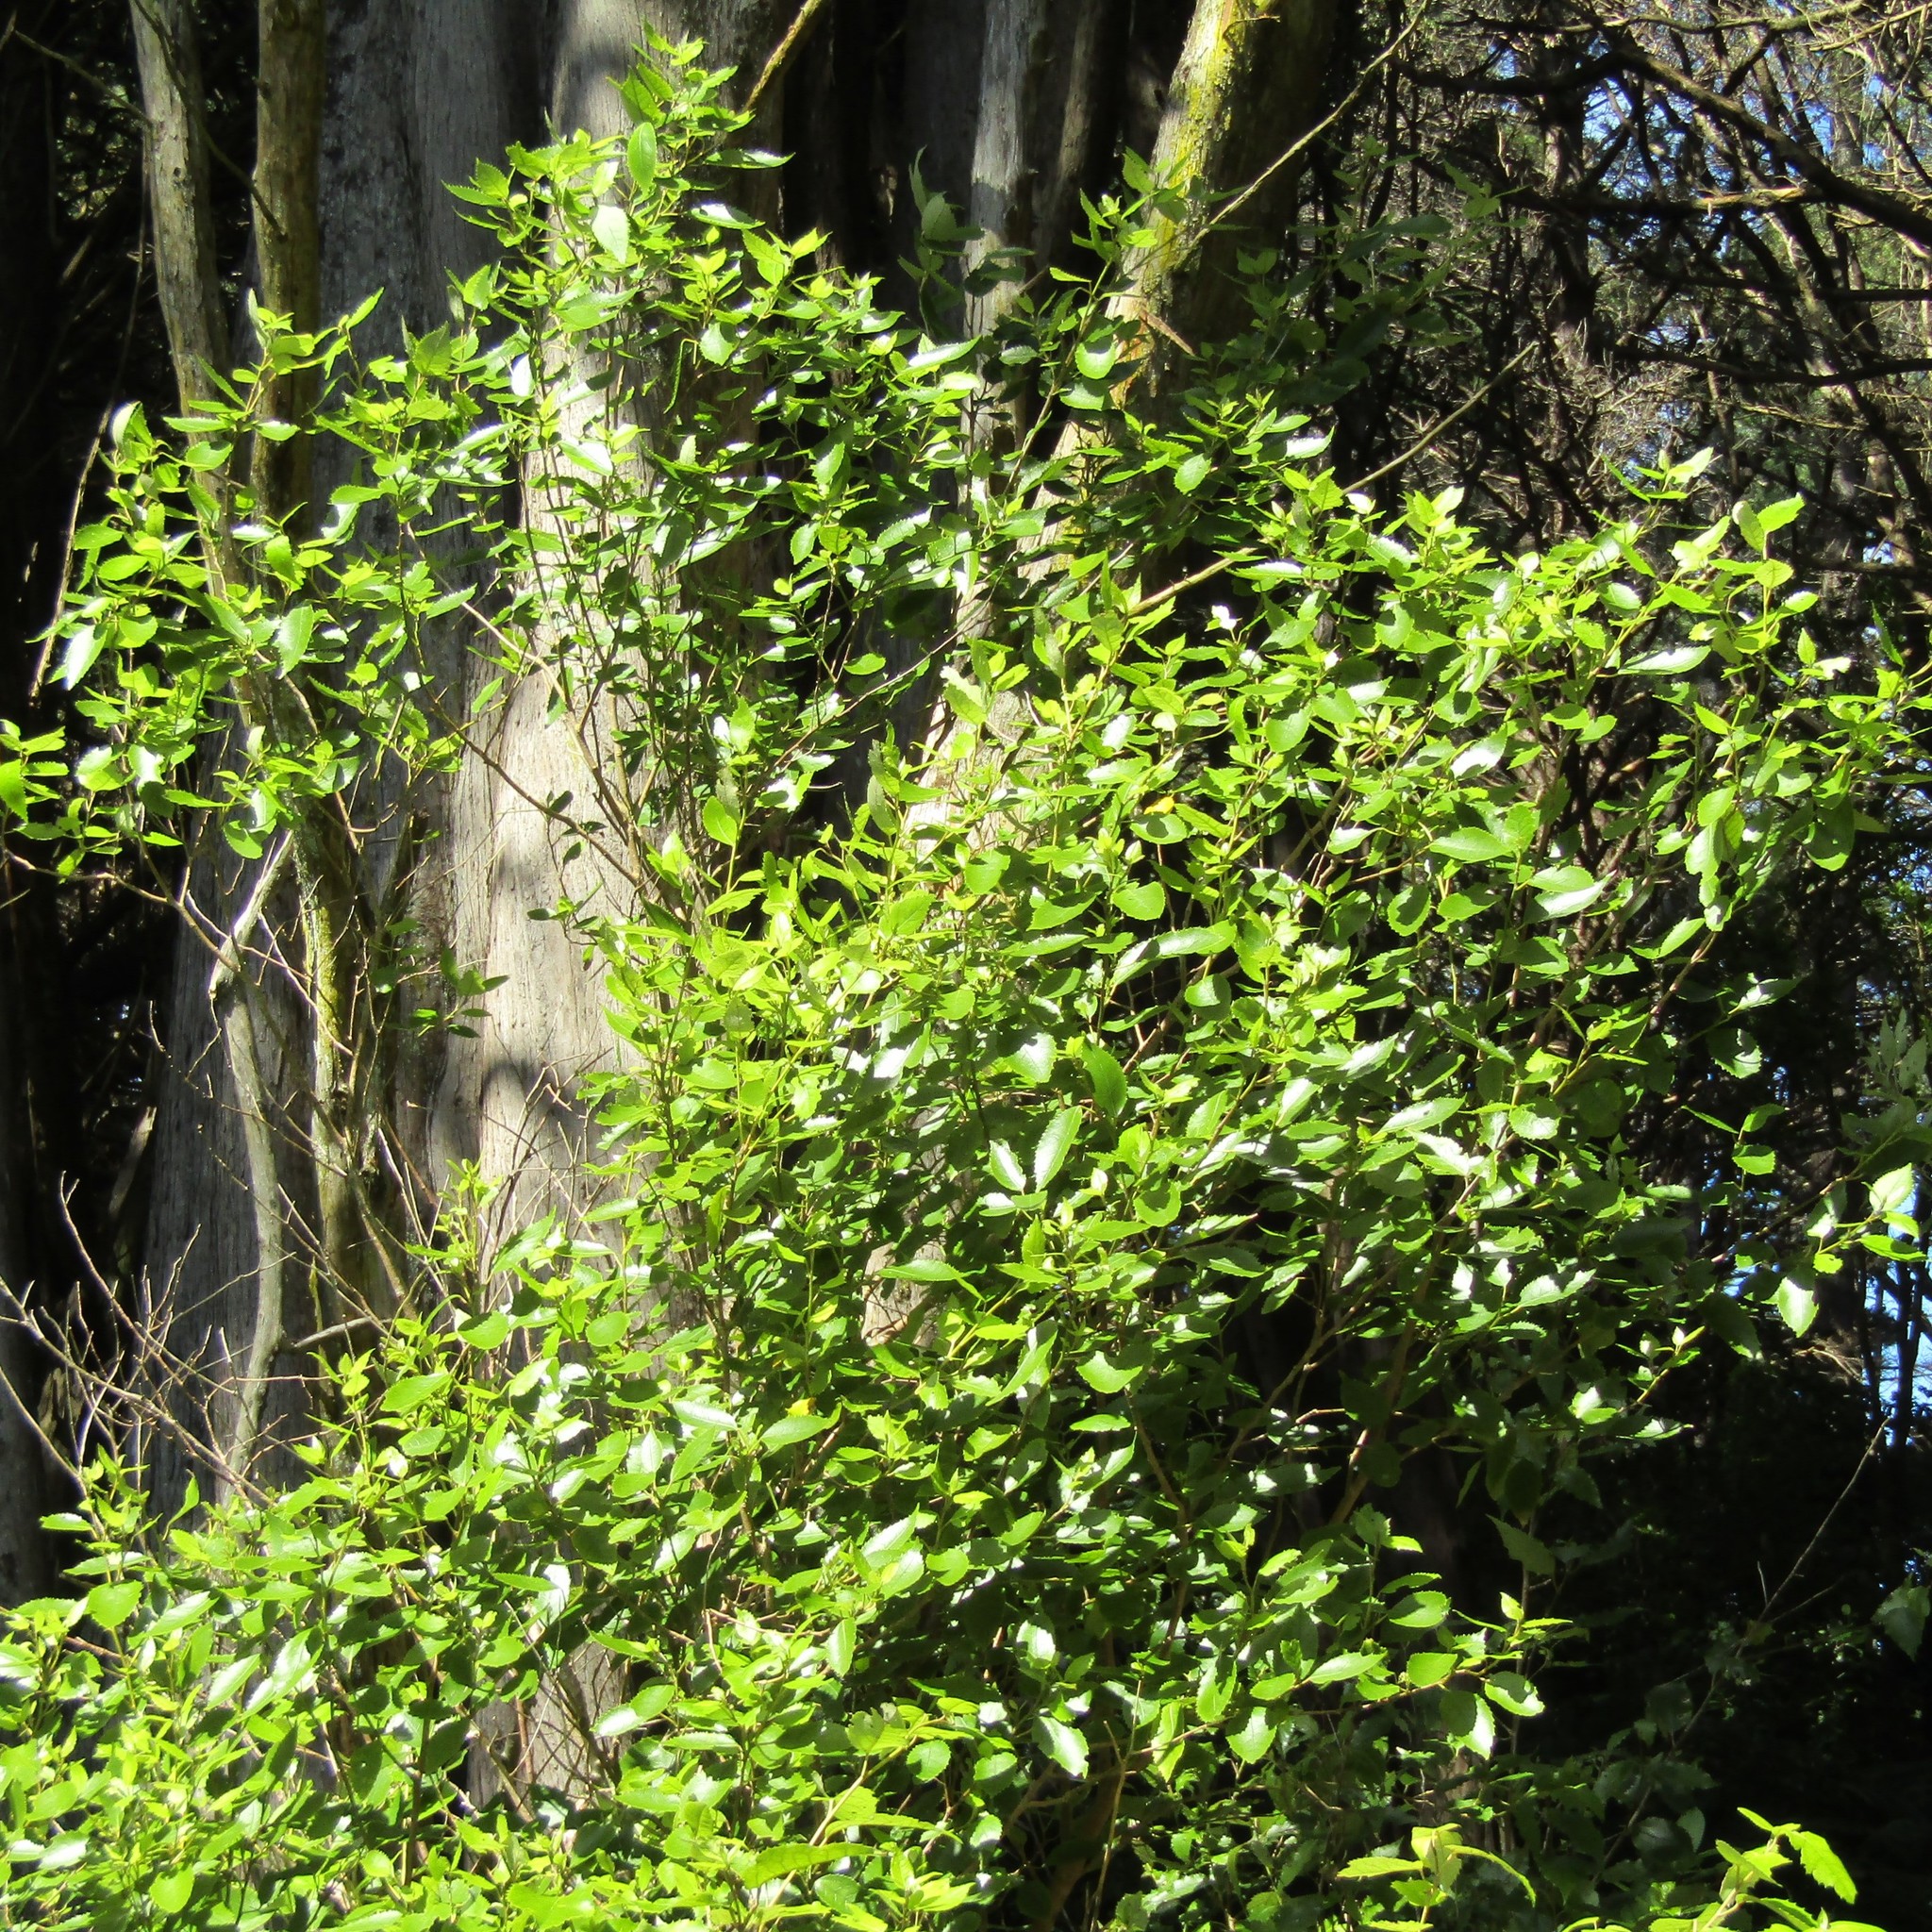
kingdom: Plantae
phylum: Tracheophyta
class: Magnoliopsida
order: Malvales
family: Malvaceae
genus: Hoheria
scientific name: Hoheria populnea
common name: Lacebark
